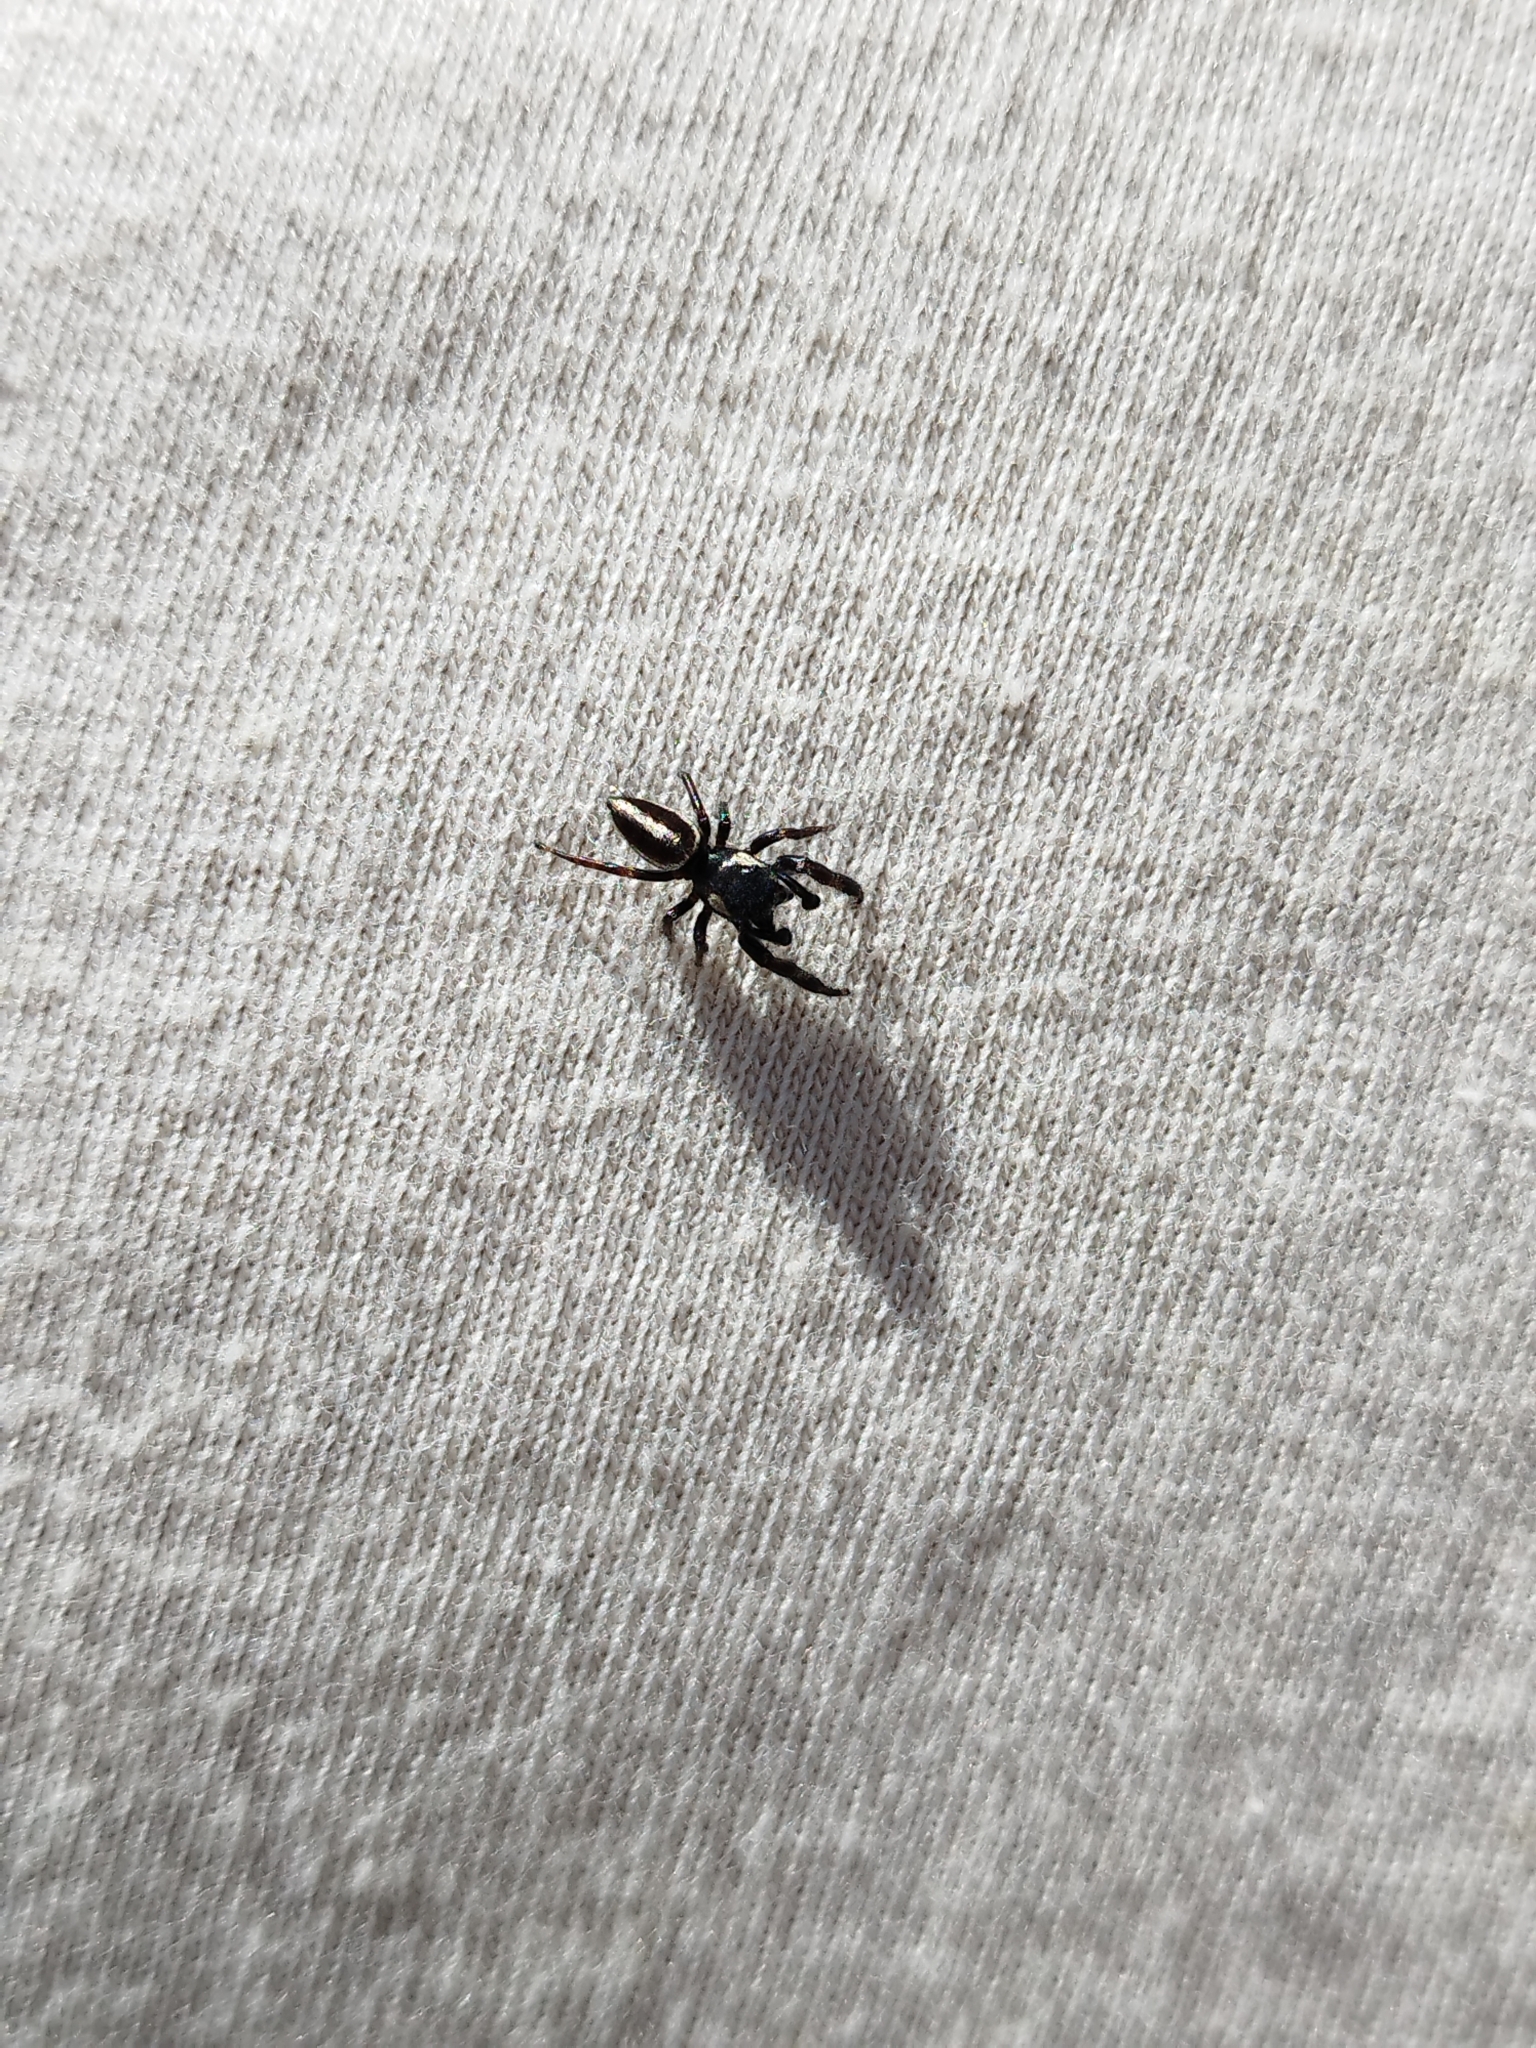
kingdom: Animalia
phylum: Arthropoda
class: Arachnida
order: Araneae
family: Salticidae
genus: Dendryphantes
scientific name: Dendryphantes mordax
